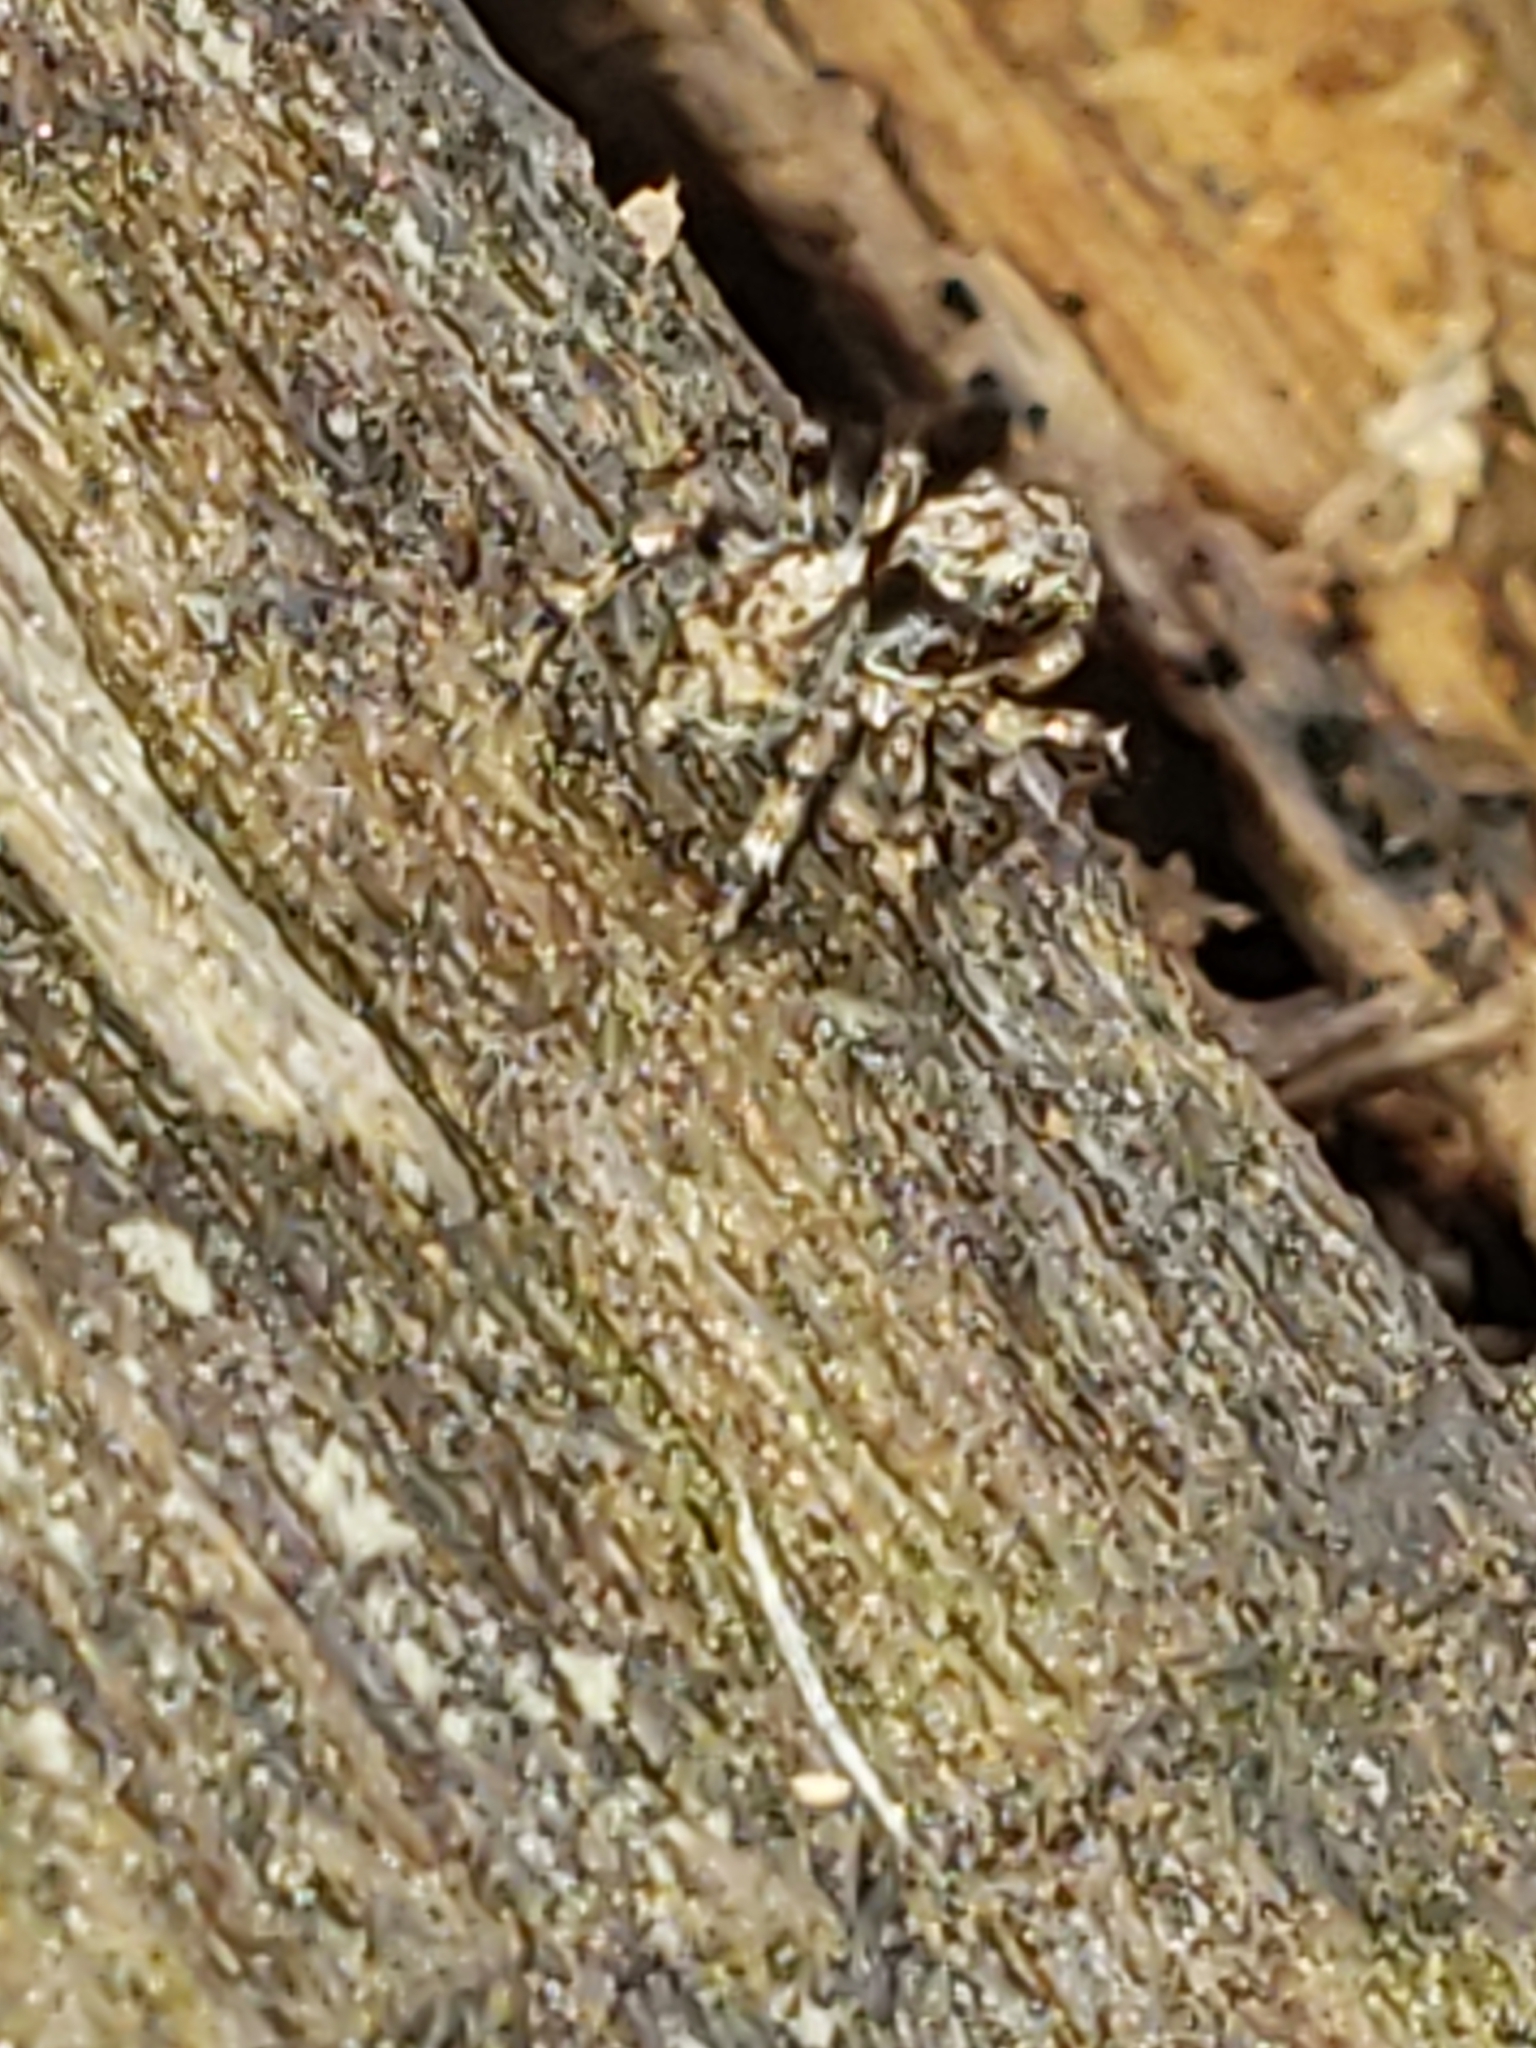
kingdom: Animalia
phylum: Arthropoda
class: Arachnida
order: Araneae
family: Salticidae
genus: Naphrys
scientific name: Naphrys pulex
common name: Flea jumping spider
